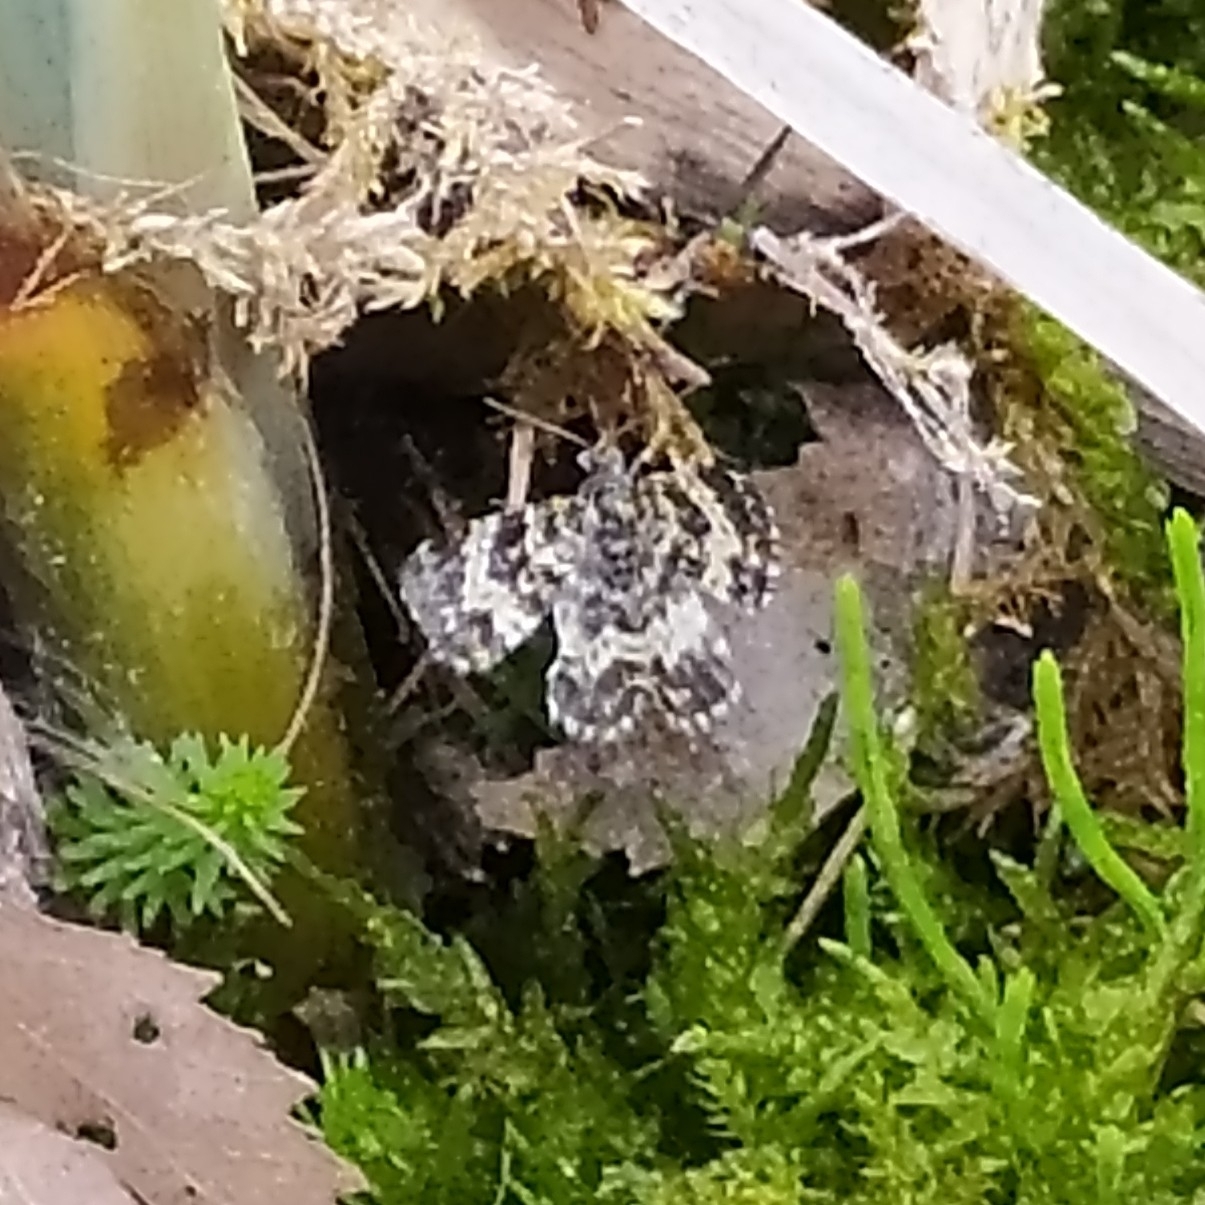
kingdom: Animalia
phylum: Arthropoda
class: Insecta
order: Lepidoptera
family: Geometridae
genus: Epirrhoe
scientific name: Epirrhoe tristata
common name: Small argent & sable
